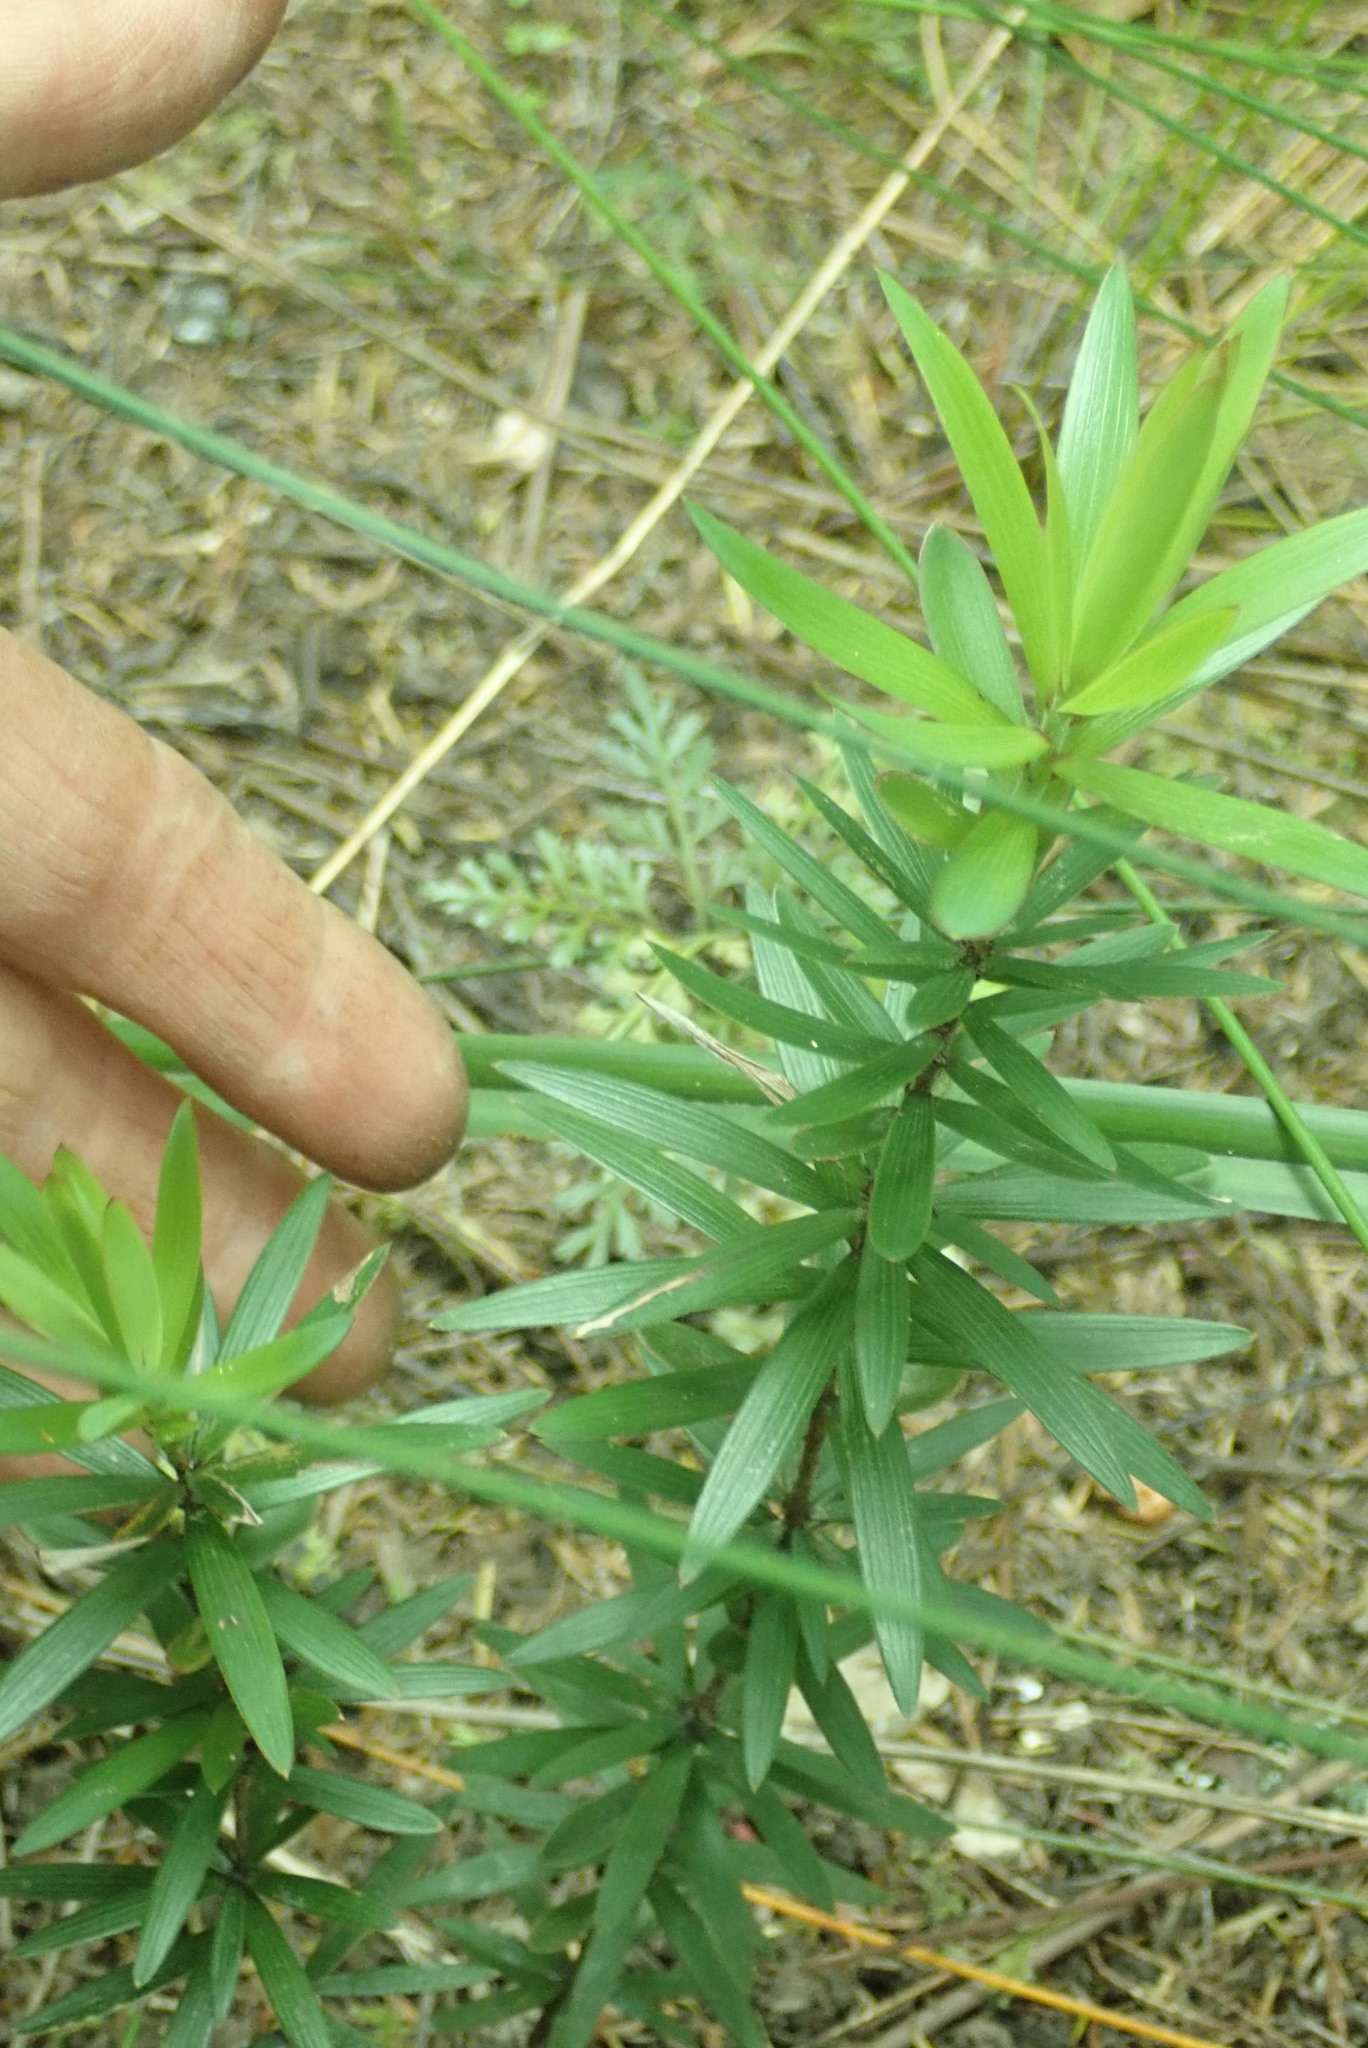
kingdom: Plantae
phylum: Tracheophyta
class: Magnoliopsida
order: Ericales
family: Ericaceae
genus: Leucopogon
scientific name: Leucopogon fasciculatus
